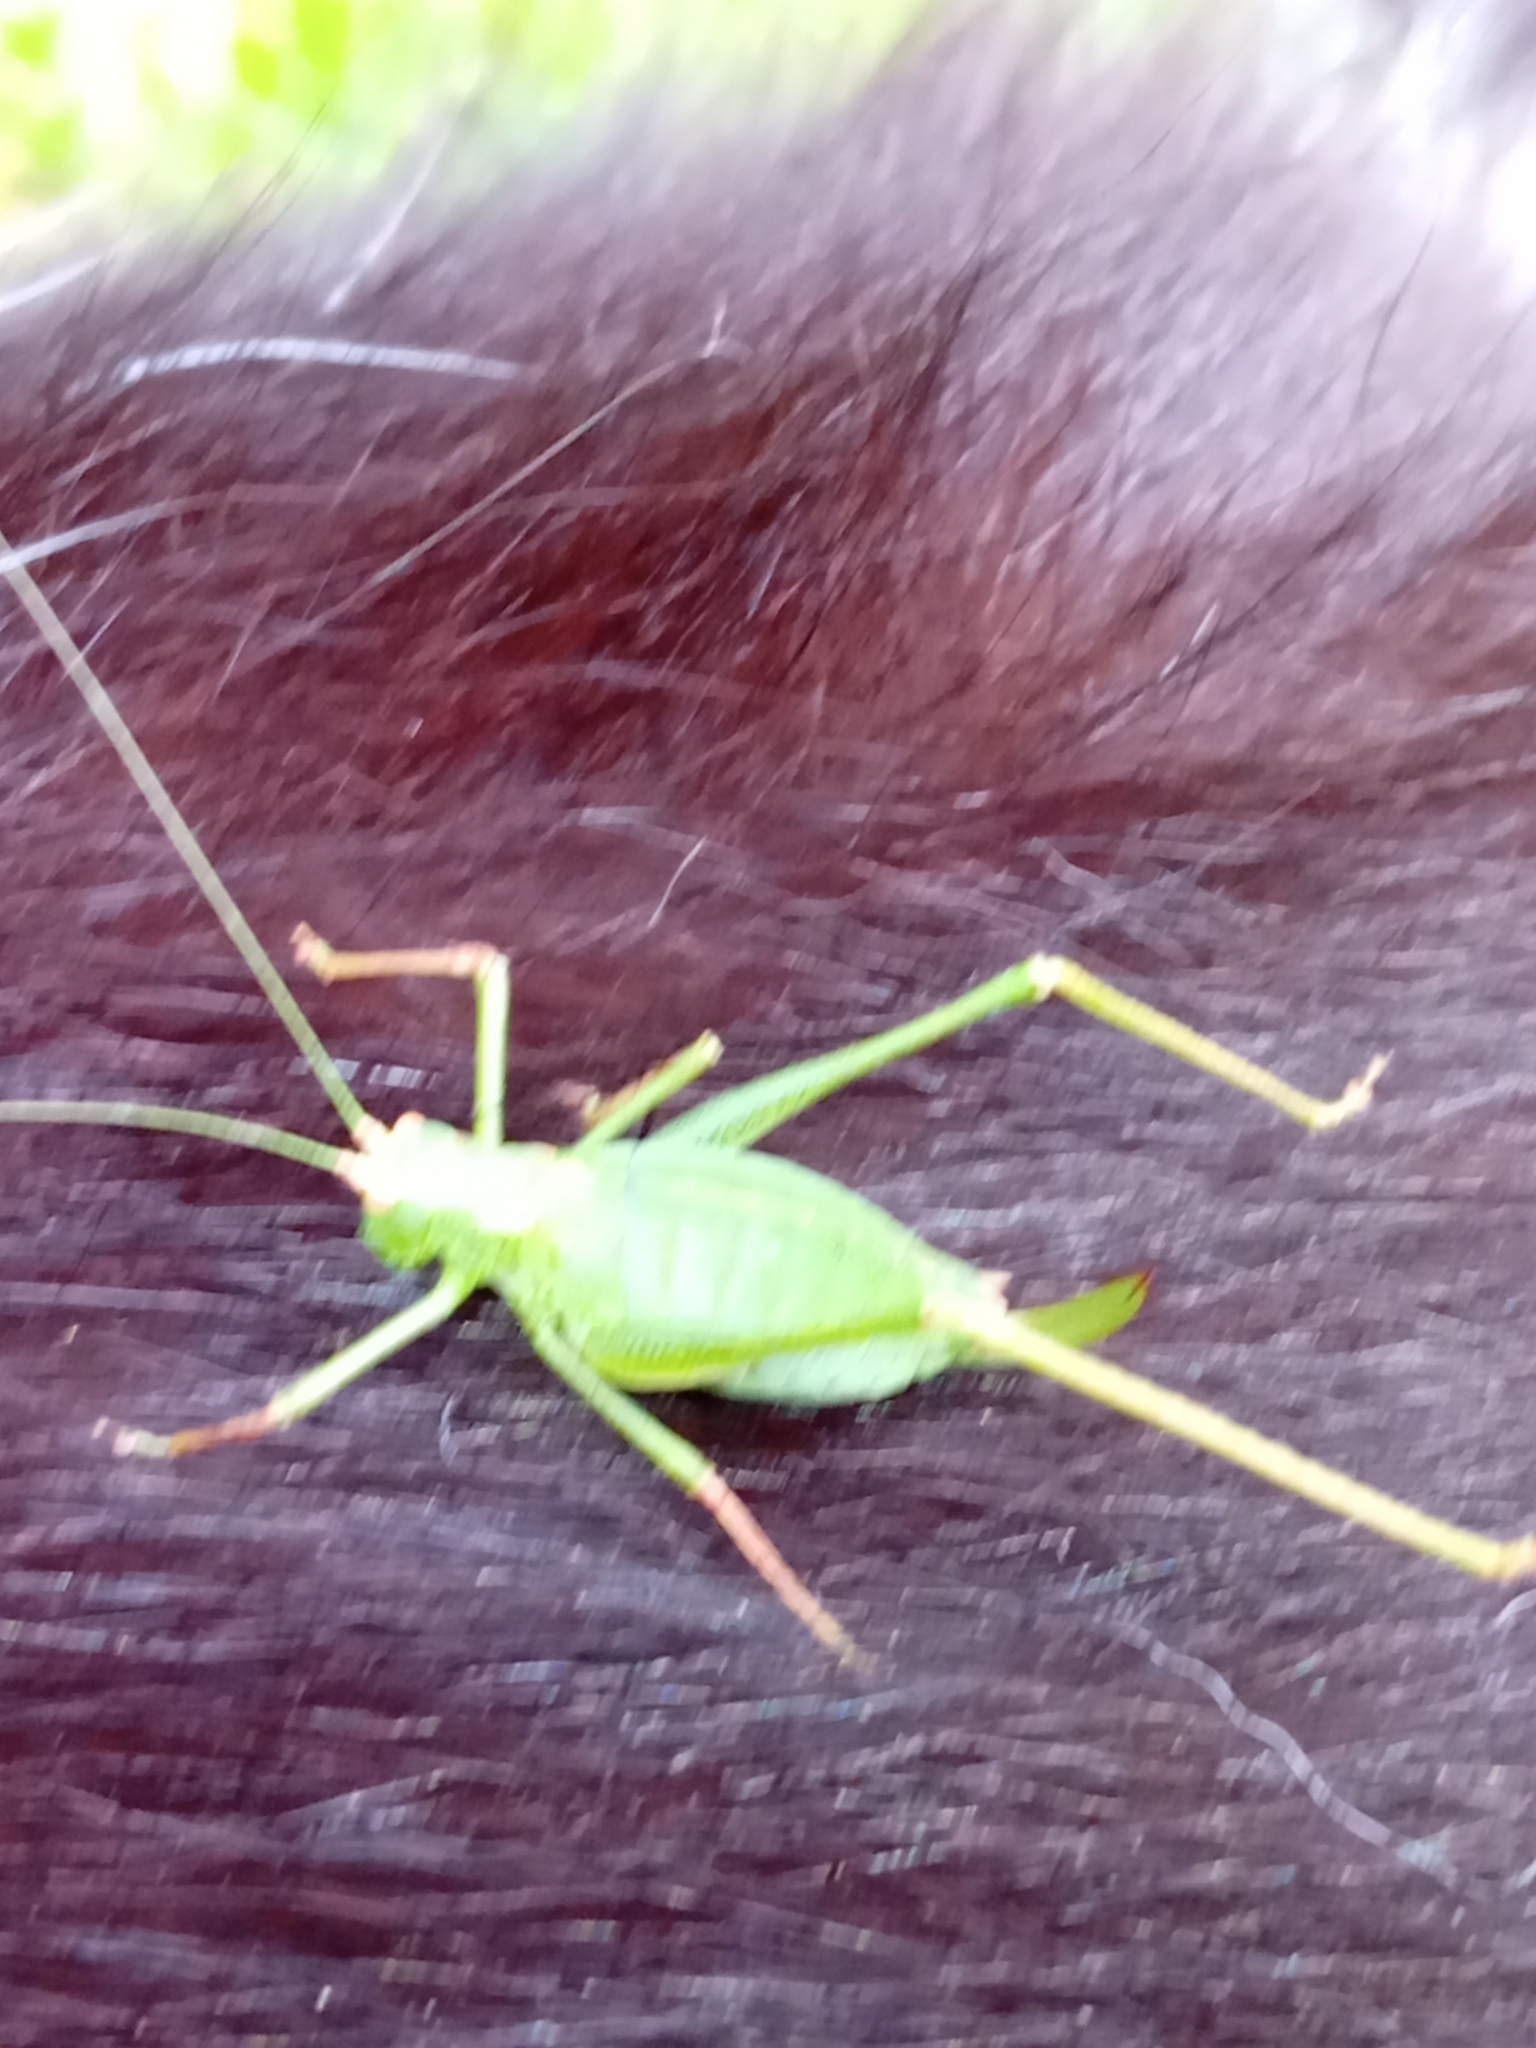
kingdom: Animalia
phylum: Arthropoda
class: Insecta
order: Orthoptera
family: Tettigoniidae
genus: Leptophyes
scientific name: Leptophyes punctatissima
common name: Speckled bush-cricket
